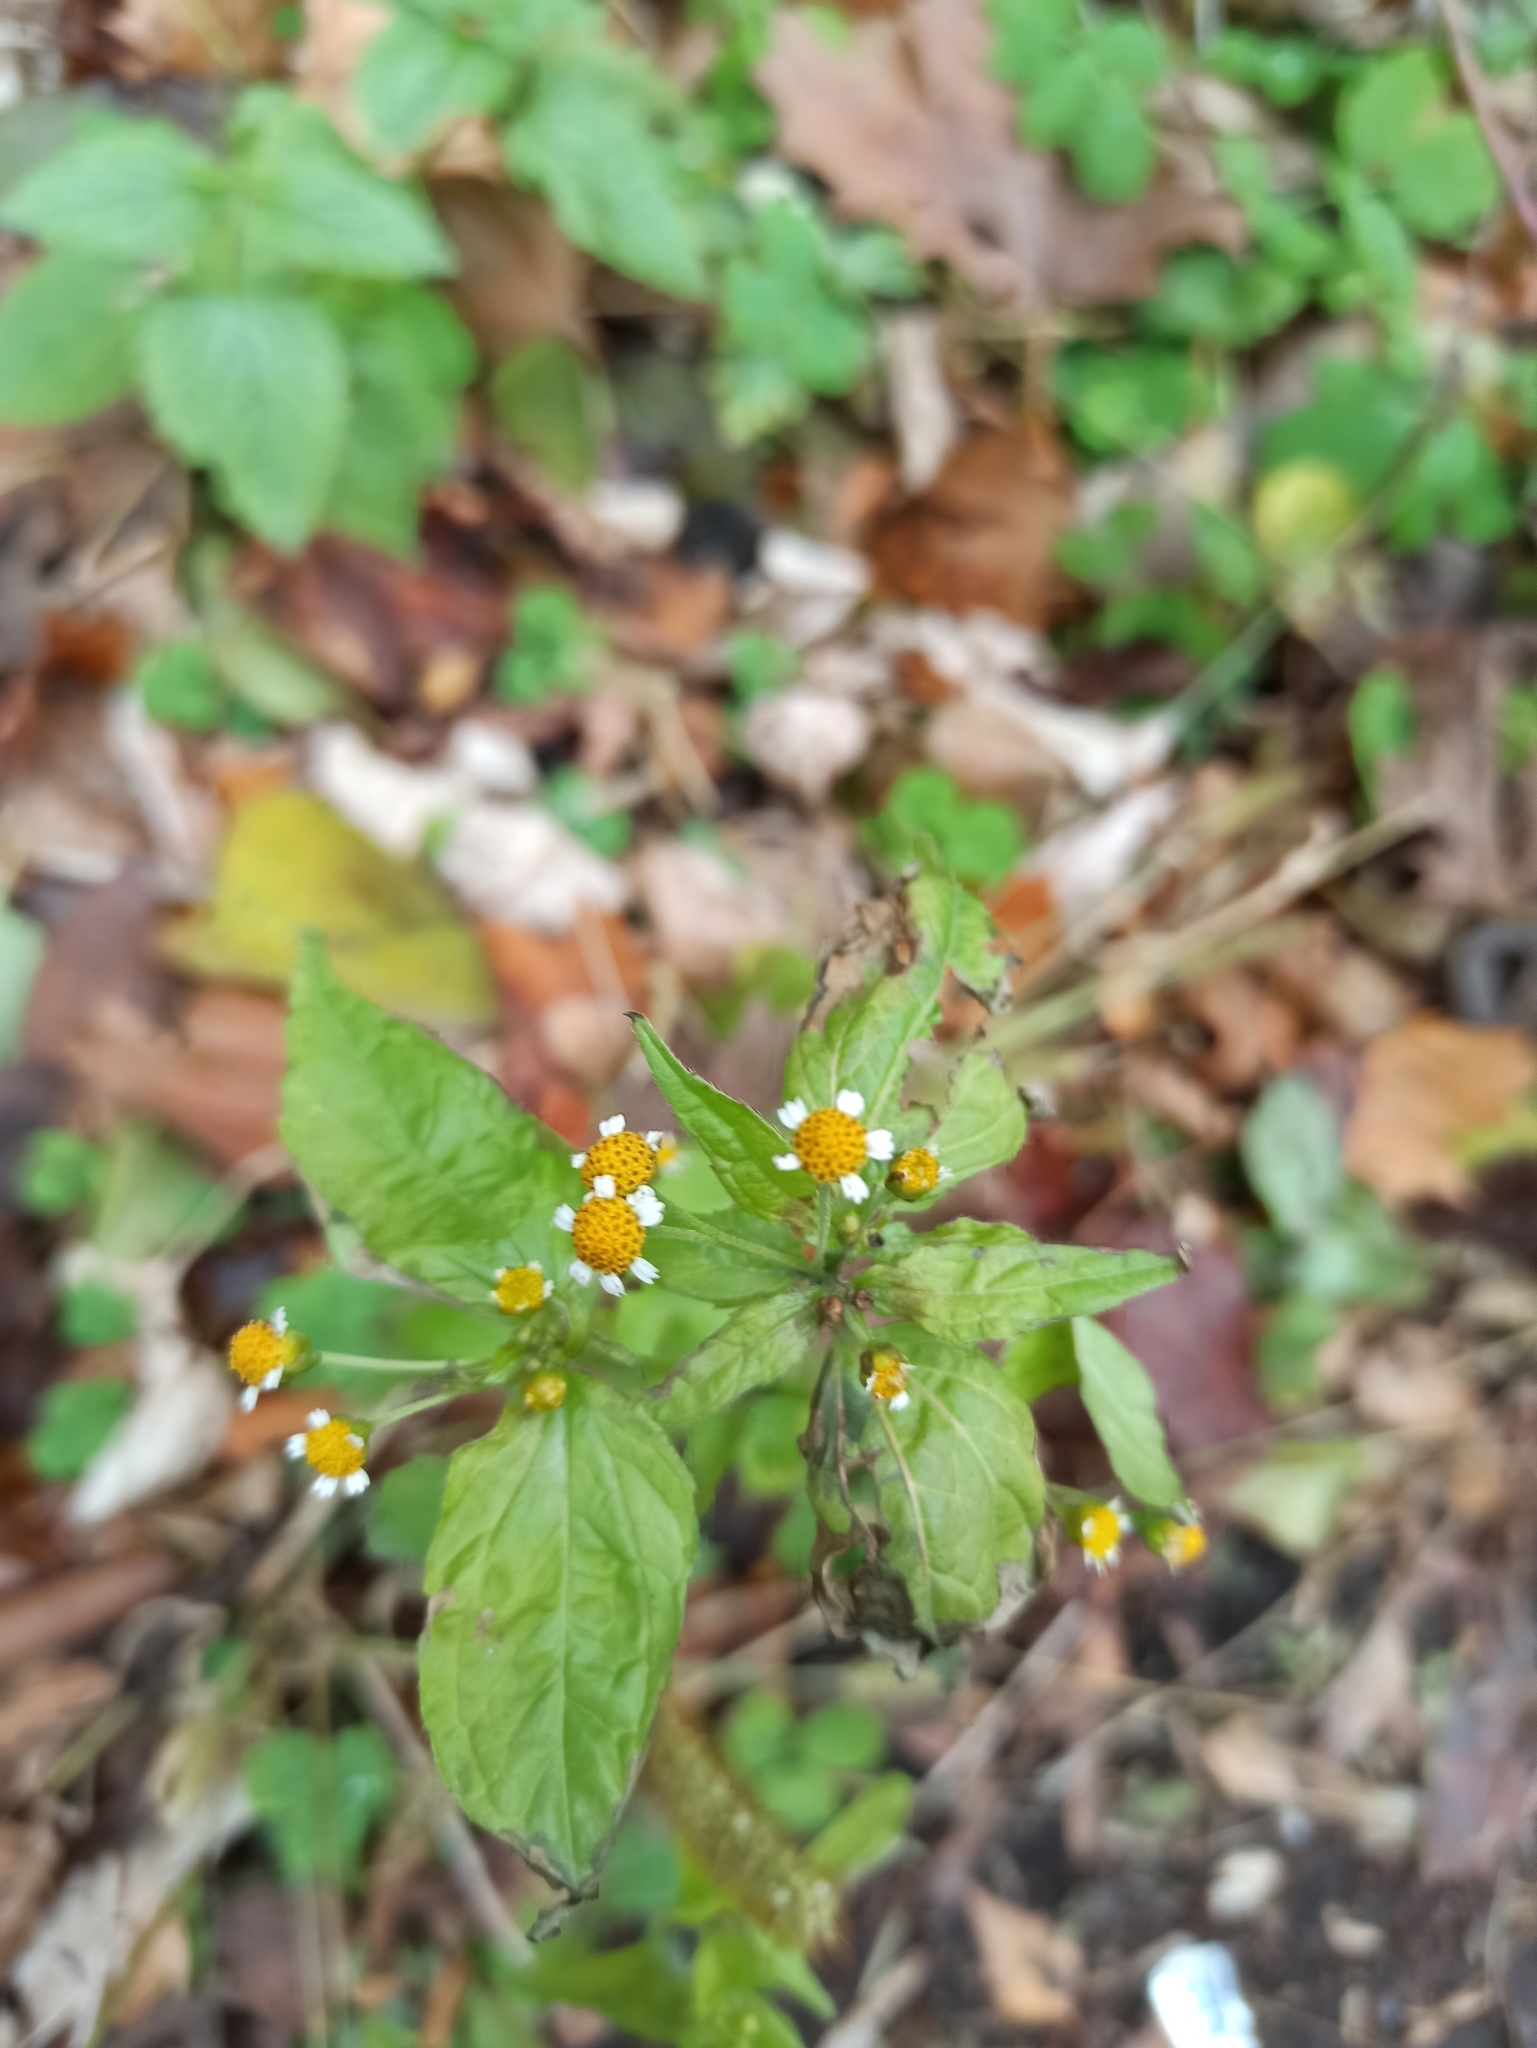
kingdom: Plantae
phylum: Tracheophyta
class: Magnoliopsida
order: Asterales
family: Asteraceae
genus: Galinsoga
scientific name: Galinsoga parviflora
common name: Gallant soldier
